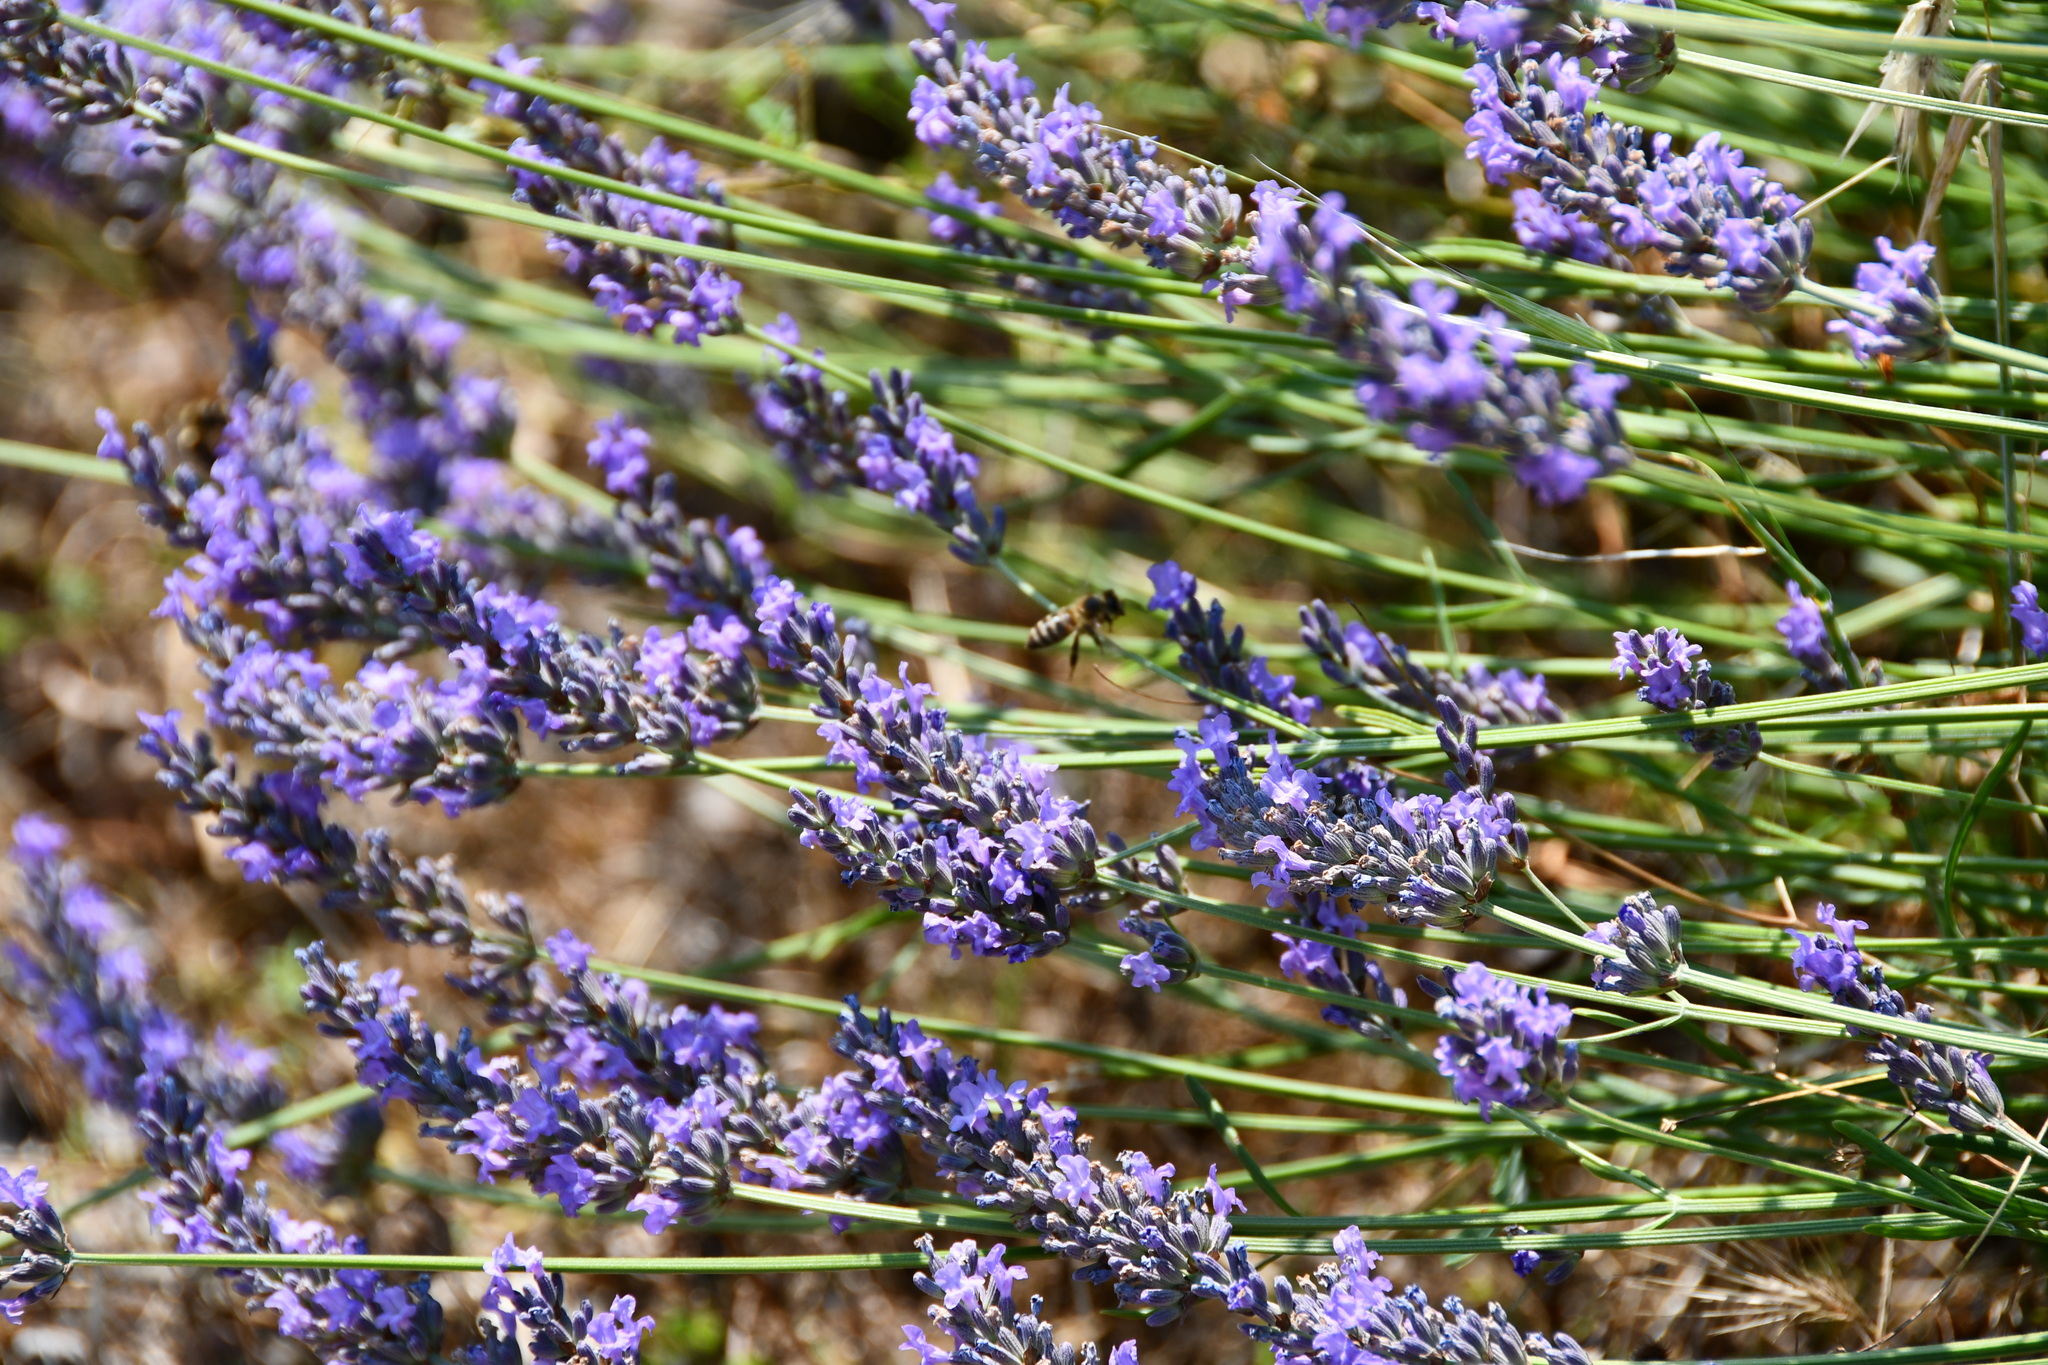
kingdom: Animalia
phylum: Arthropoda
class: Insecta
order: Hymenoptera
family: Apidae
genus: Apis
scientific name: Apis mellifera
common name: Honey bee
